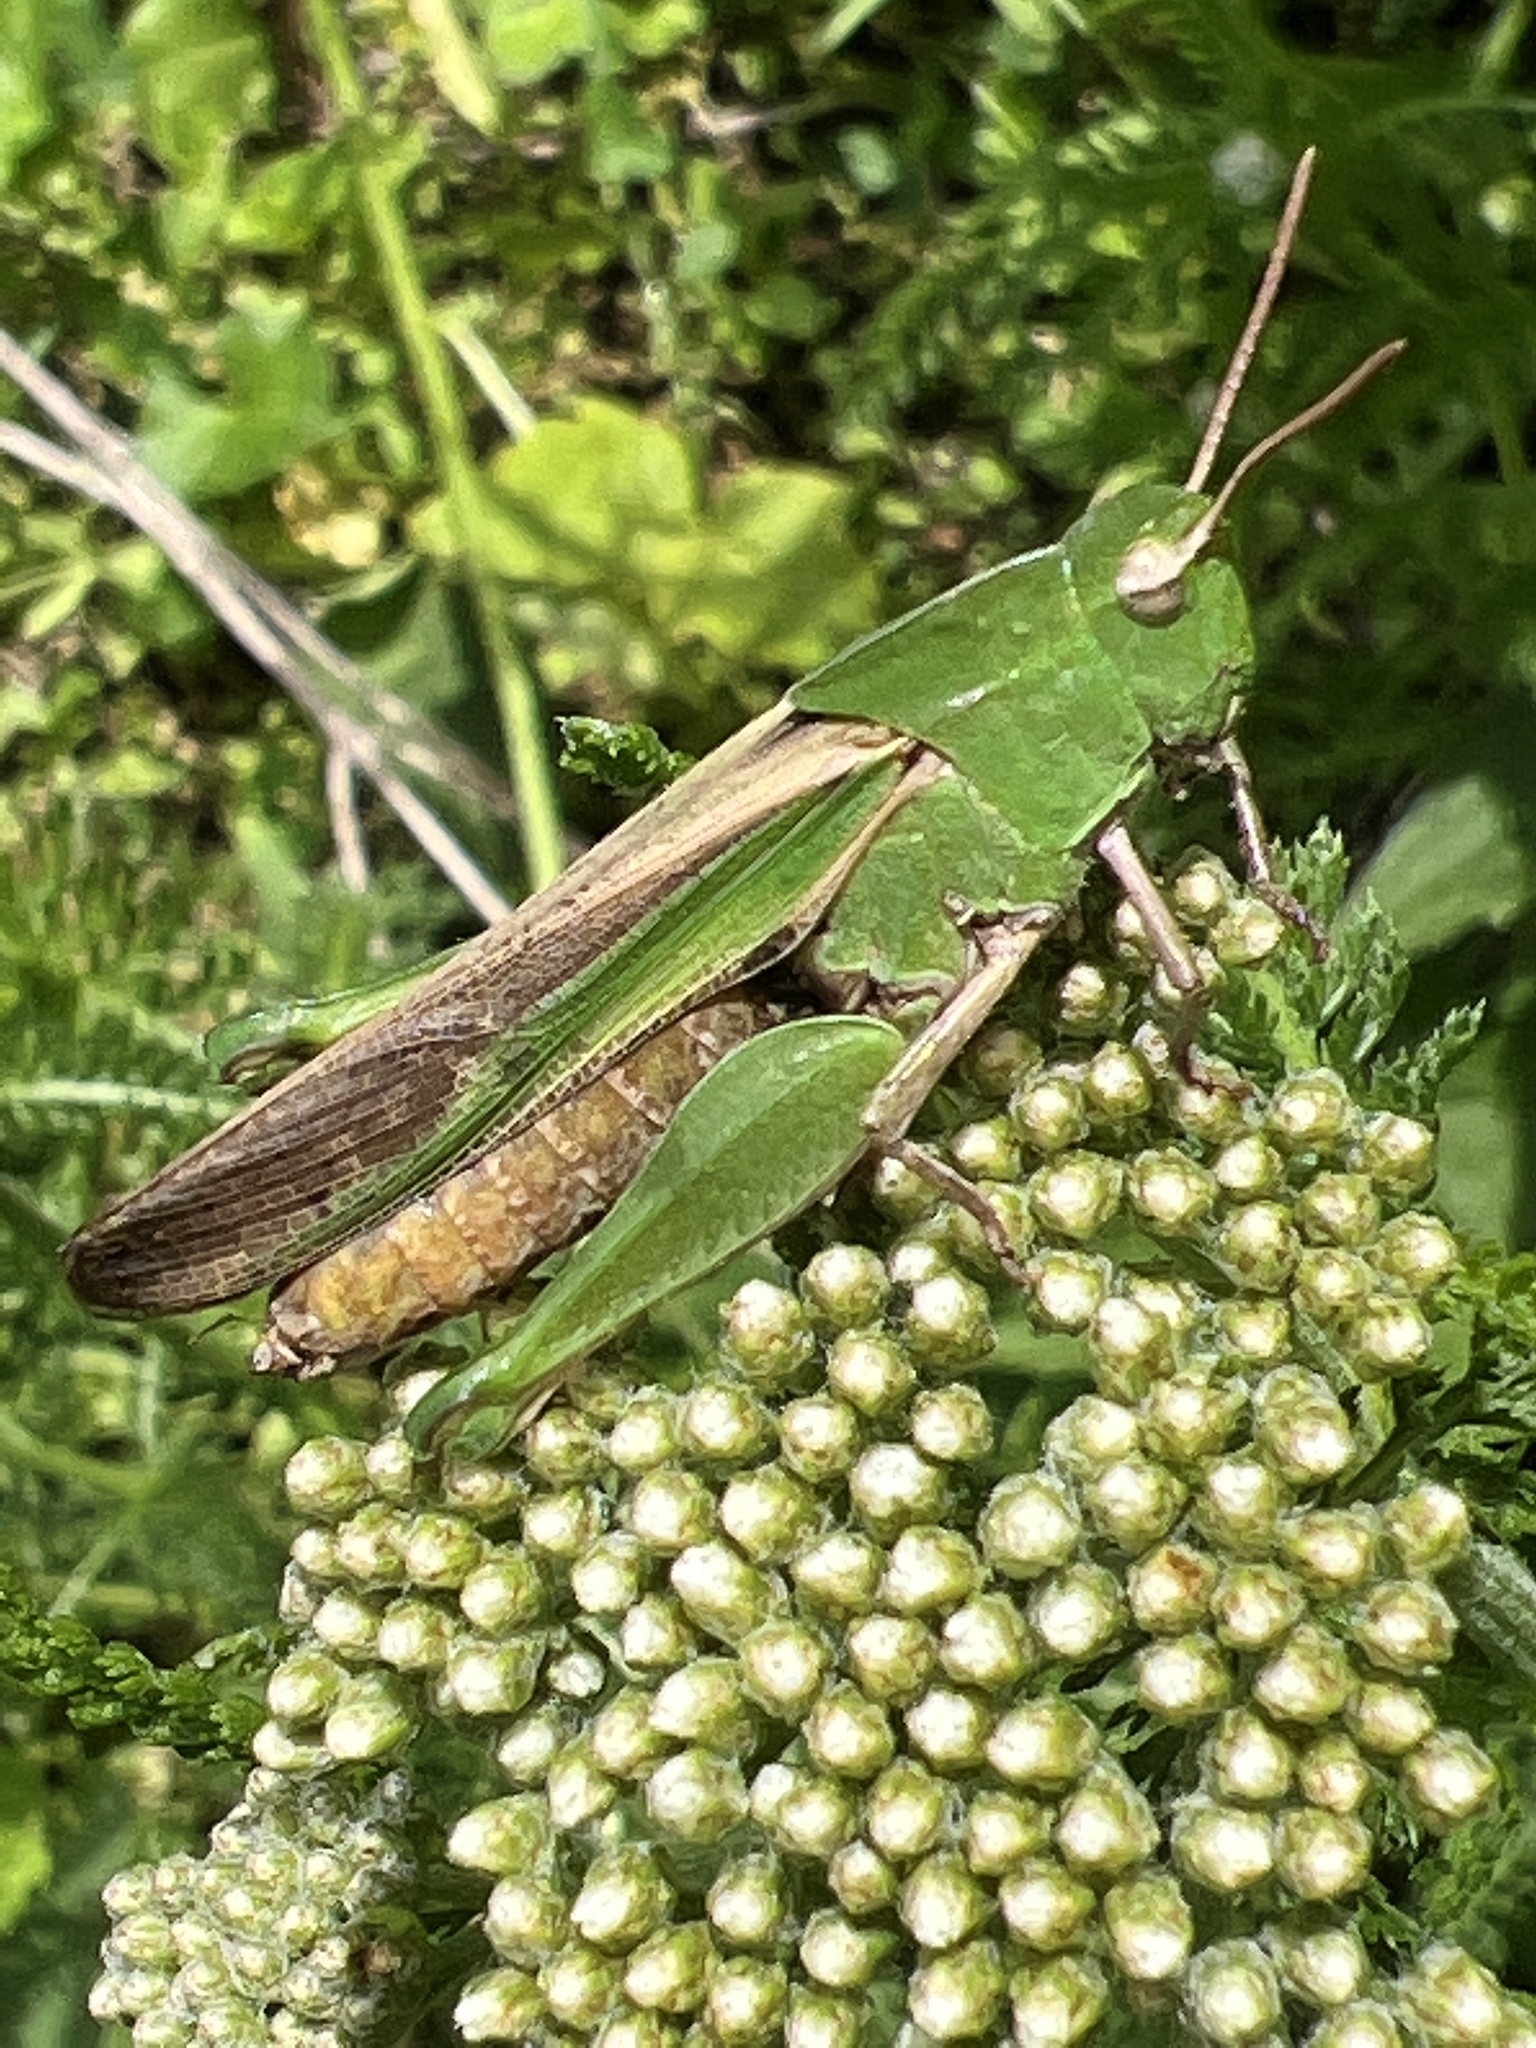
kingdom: Animalia
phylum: Arthropoda
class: Insecta
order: Orthoptera
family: Acrididae
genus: Chortophaga
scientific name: Chortophaga viridifasciata
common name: Green-striped grasshopper
